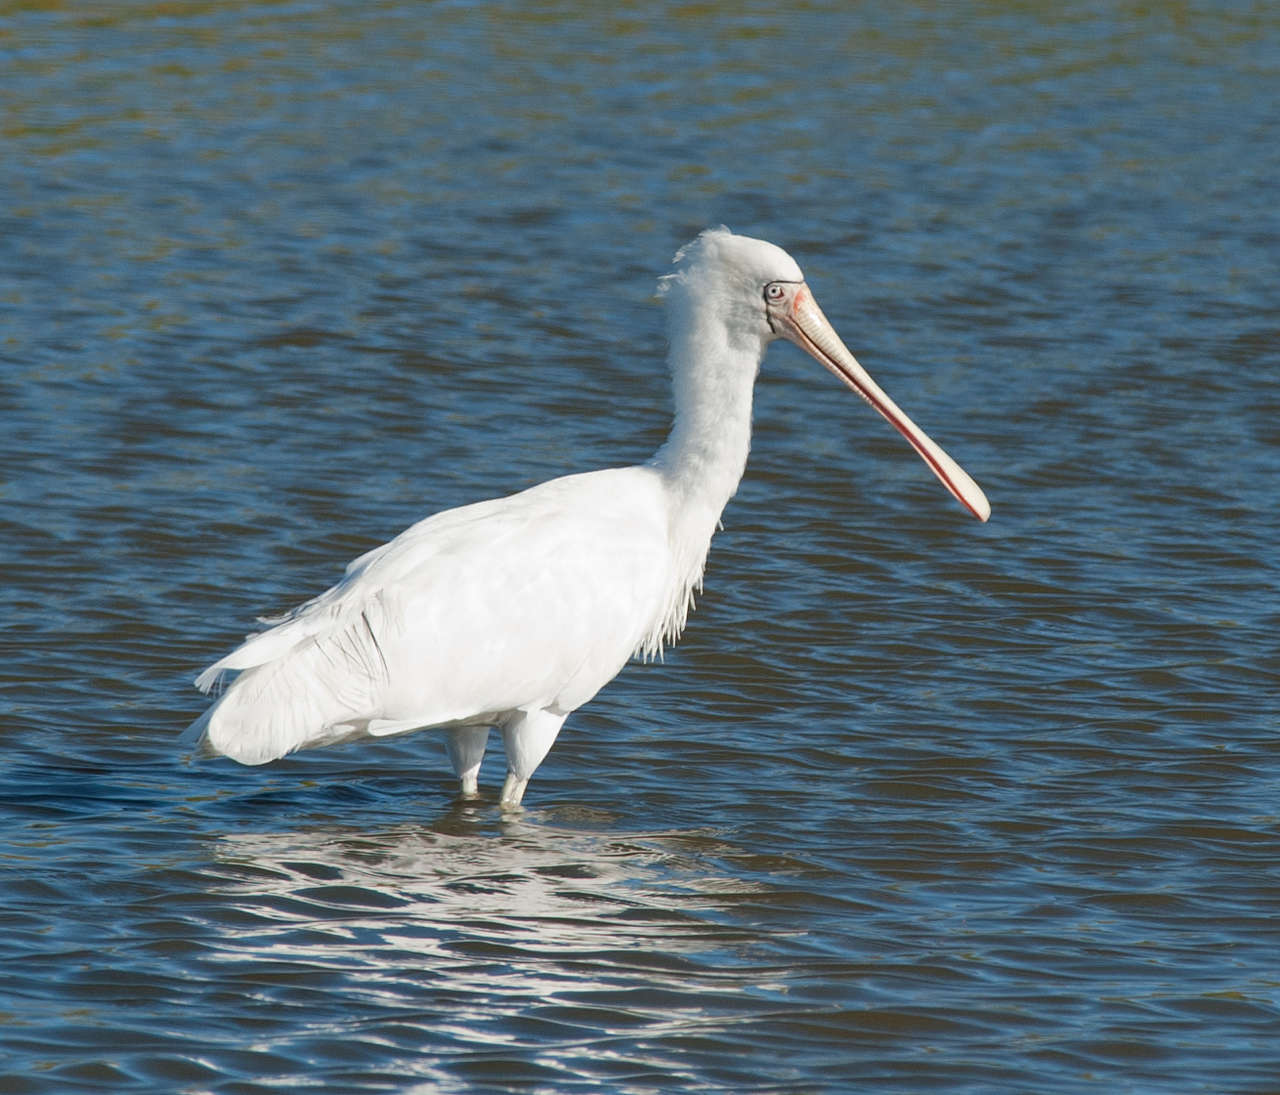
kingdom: Animalia
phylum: Chordata
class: Aves
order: Pelecaniformes
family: Threskiornithidae
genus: Platalea
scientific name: Platalea flavipes
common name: Yellow-billed spoonbill
